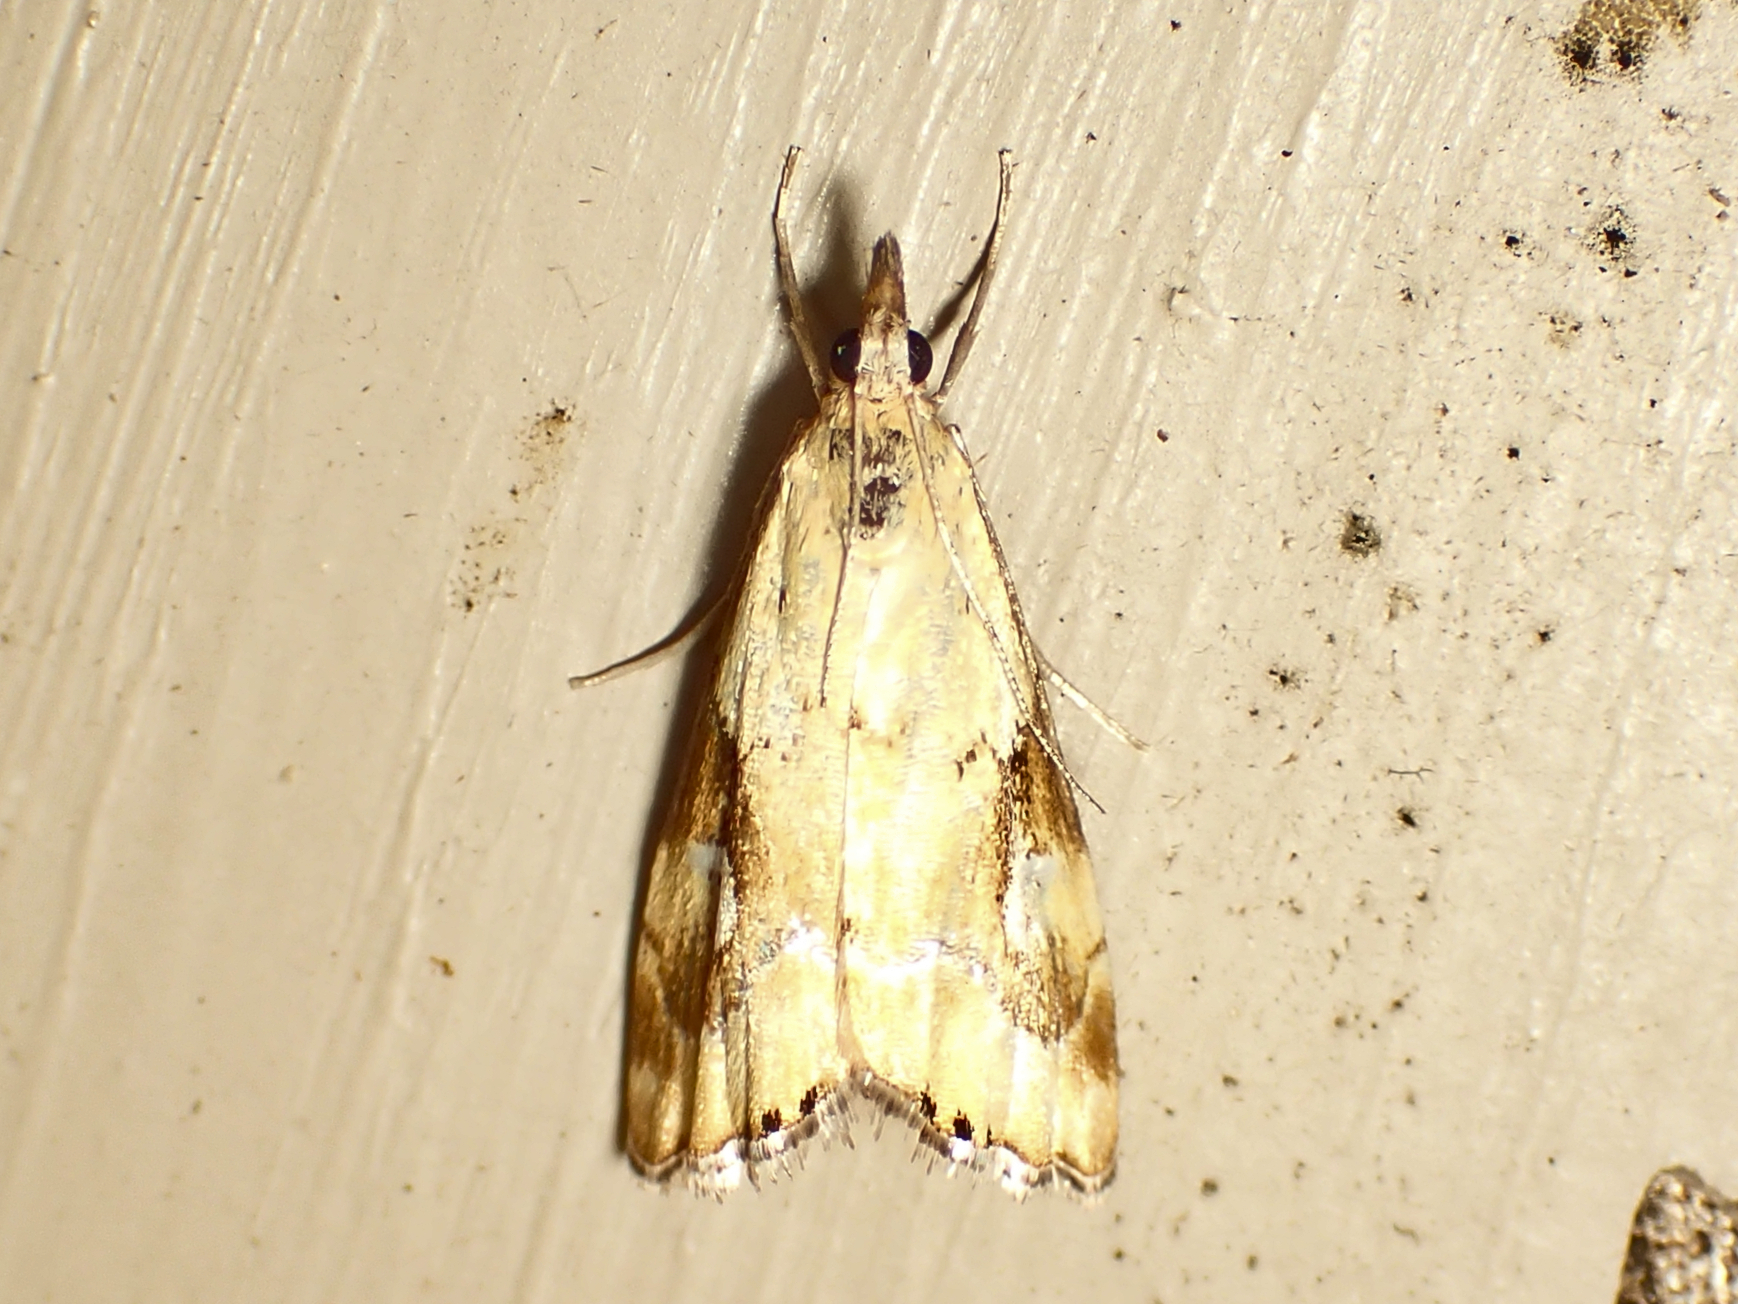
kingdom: Animalia
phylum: Arthropoda
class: Insecta
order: Lepidoptera
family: Crambidae
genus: Glaucocharis
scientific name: Glaucocharis lepidella
